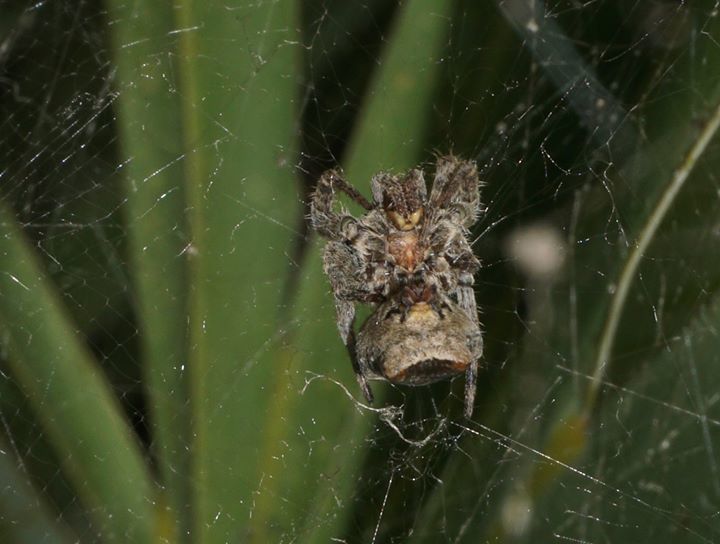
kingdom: Animalia
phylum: Arthropoda
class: Arachnida
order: Araneae
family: Araneidae
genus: Cyrtophora
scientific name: Cyrtophora citricola
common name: Orb weavers
